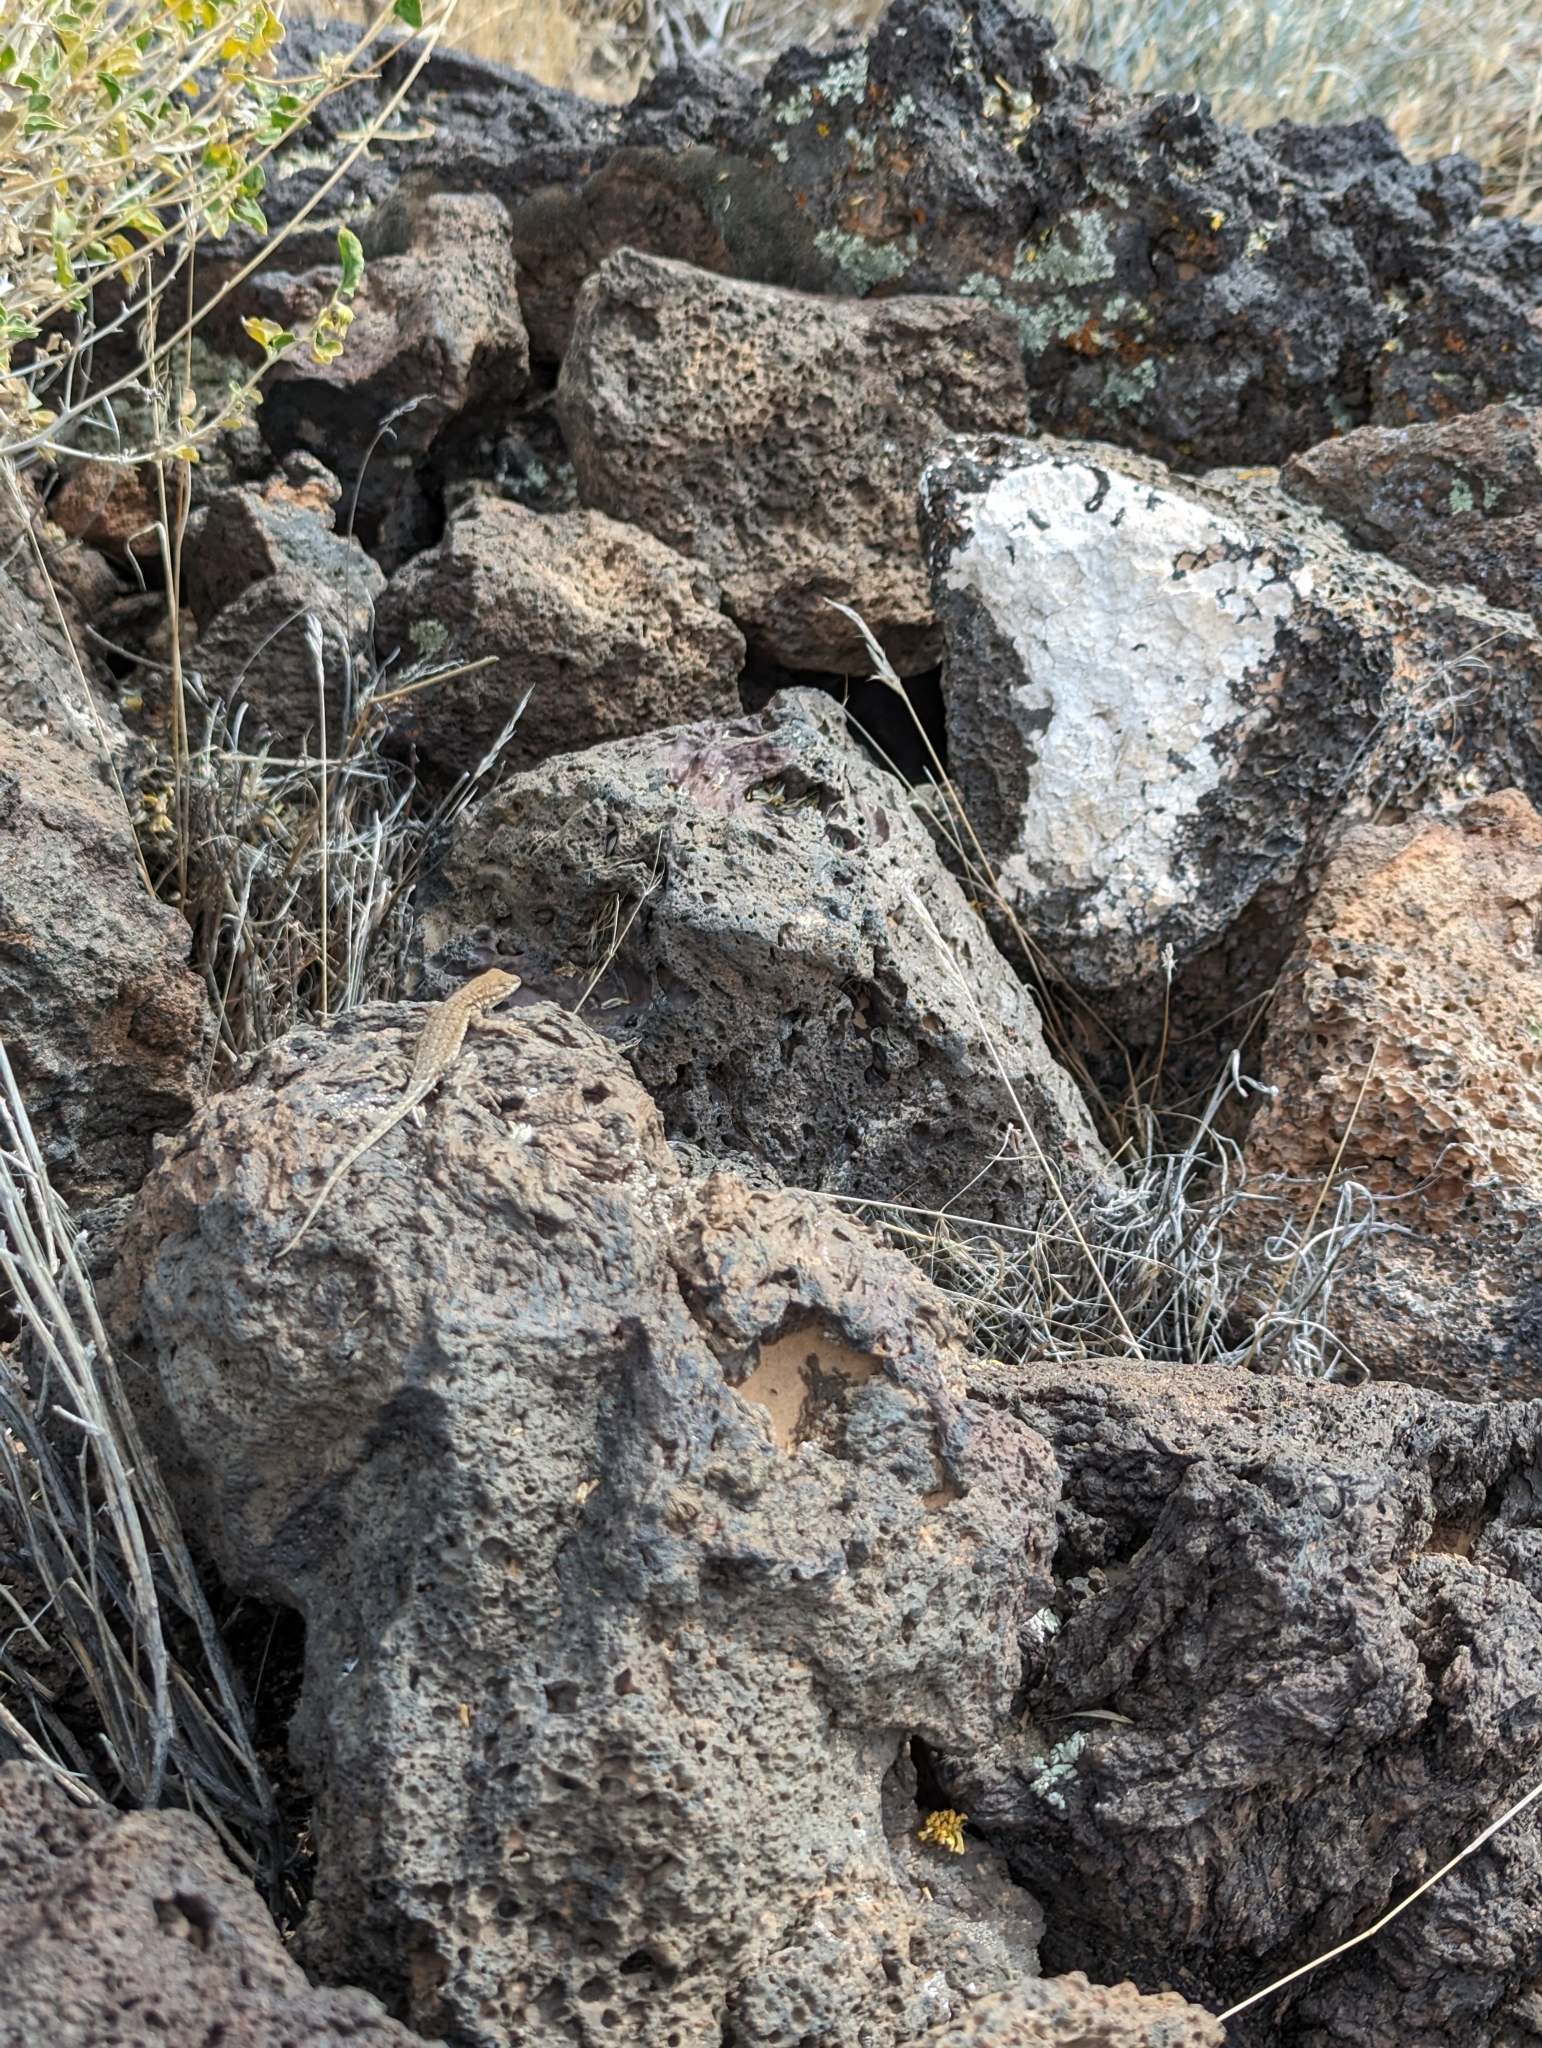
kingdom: Animalia
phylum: Chordata
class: Squamata
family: Phrynosomatidae
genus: Uta
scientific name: Uta stansburiana
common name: Side-blotched lizard
